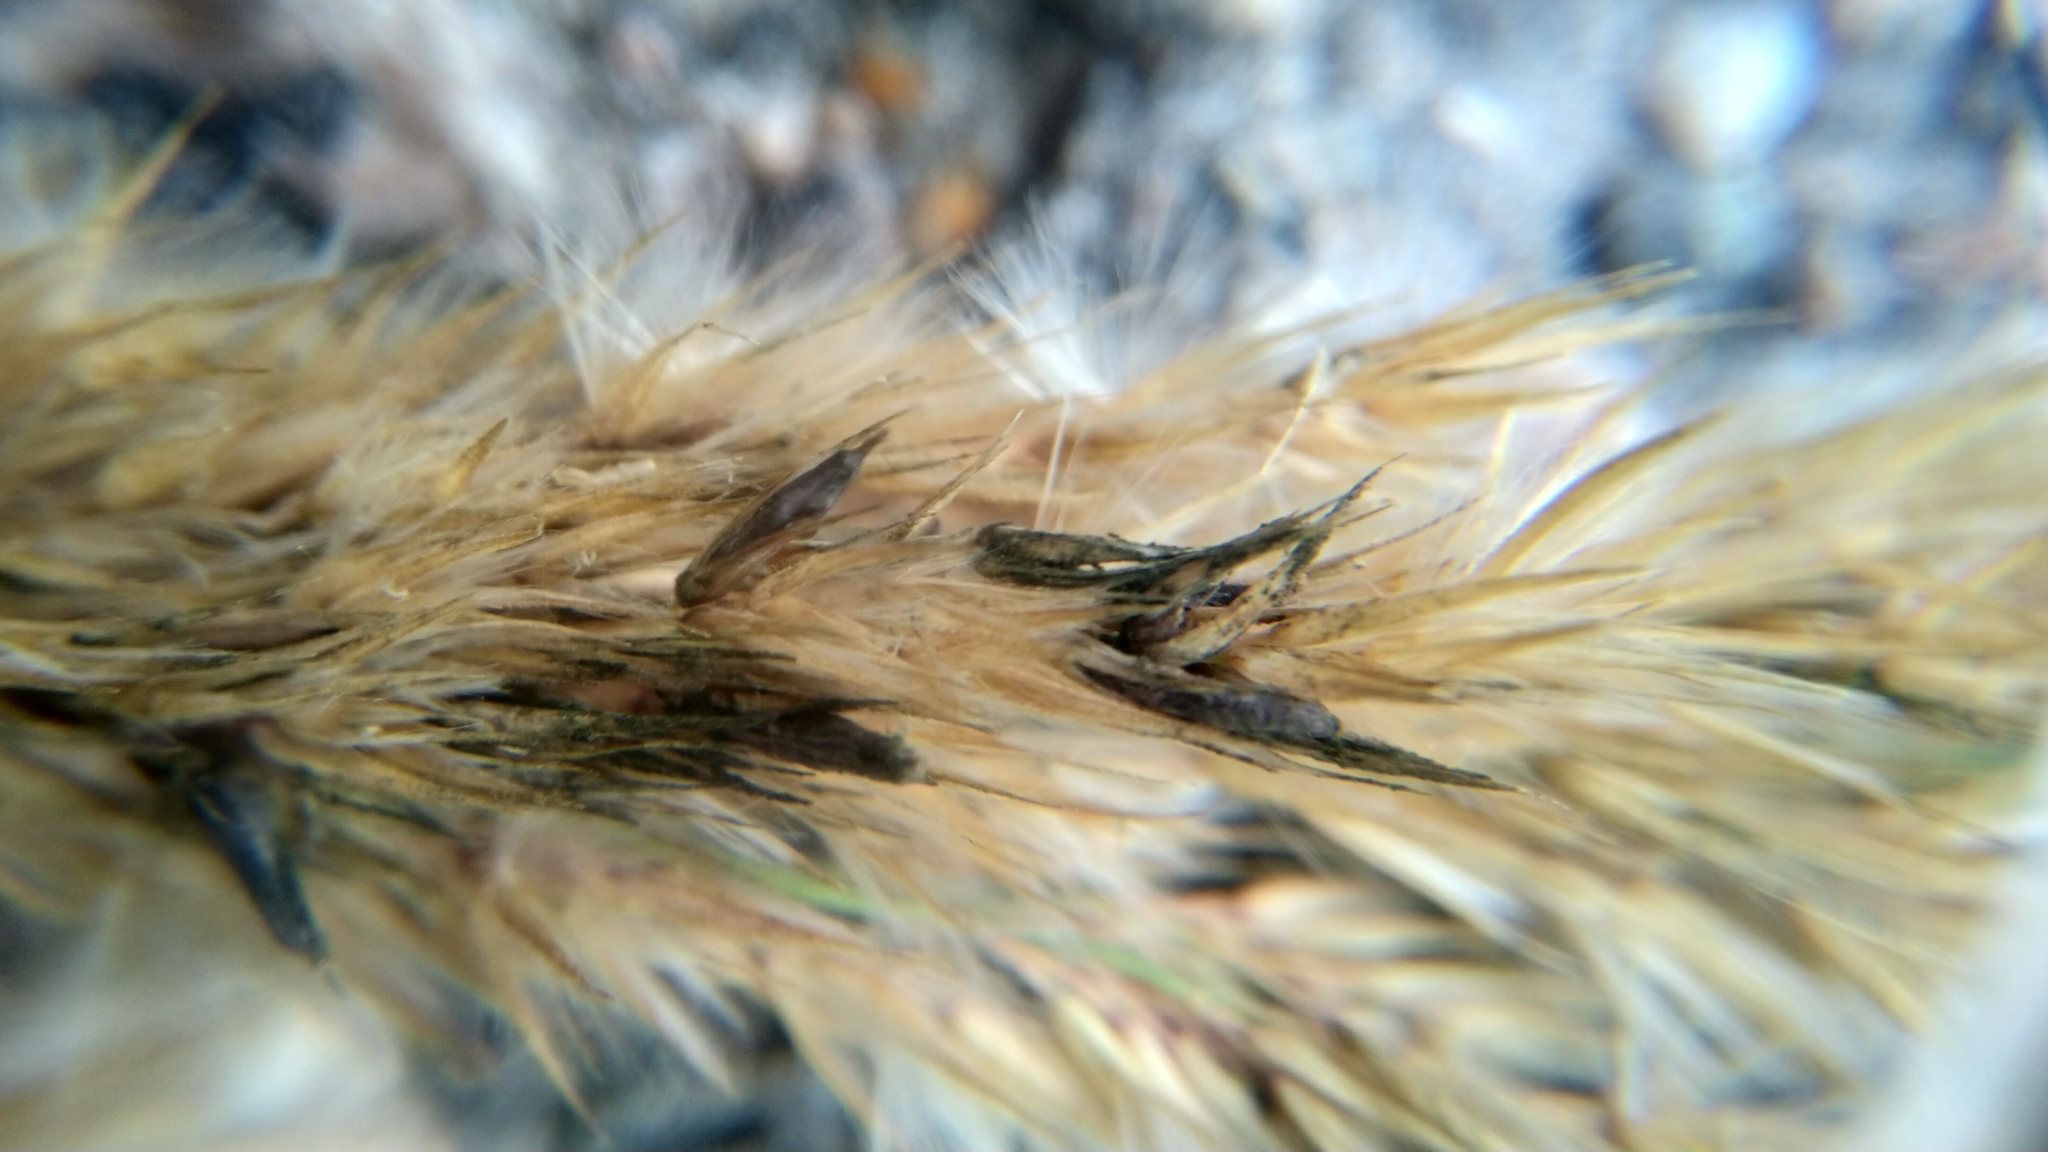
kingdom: Fungi
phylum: Ascomycota
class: Sordariomycetes
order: Hypocreales
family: Clavicipitaceae
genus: Claviceps
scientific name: Claviceps purpurea
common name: Rye ergot
